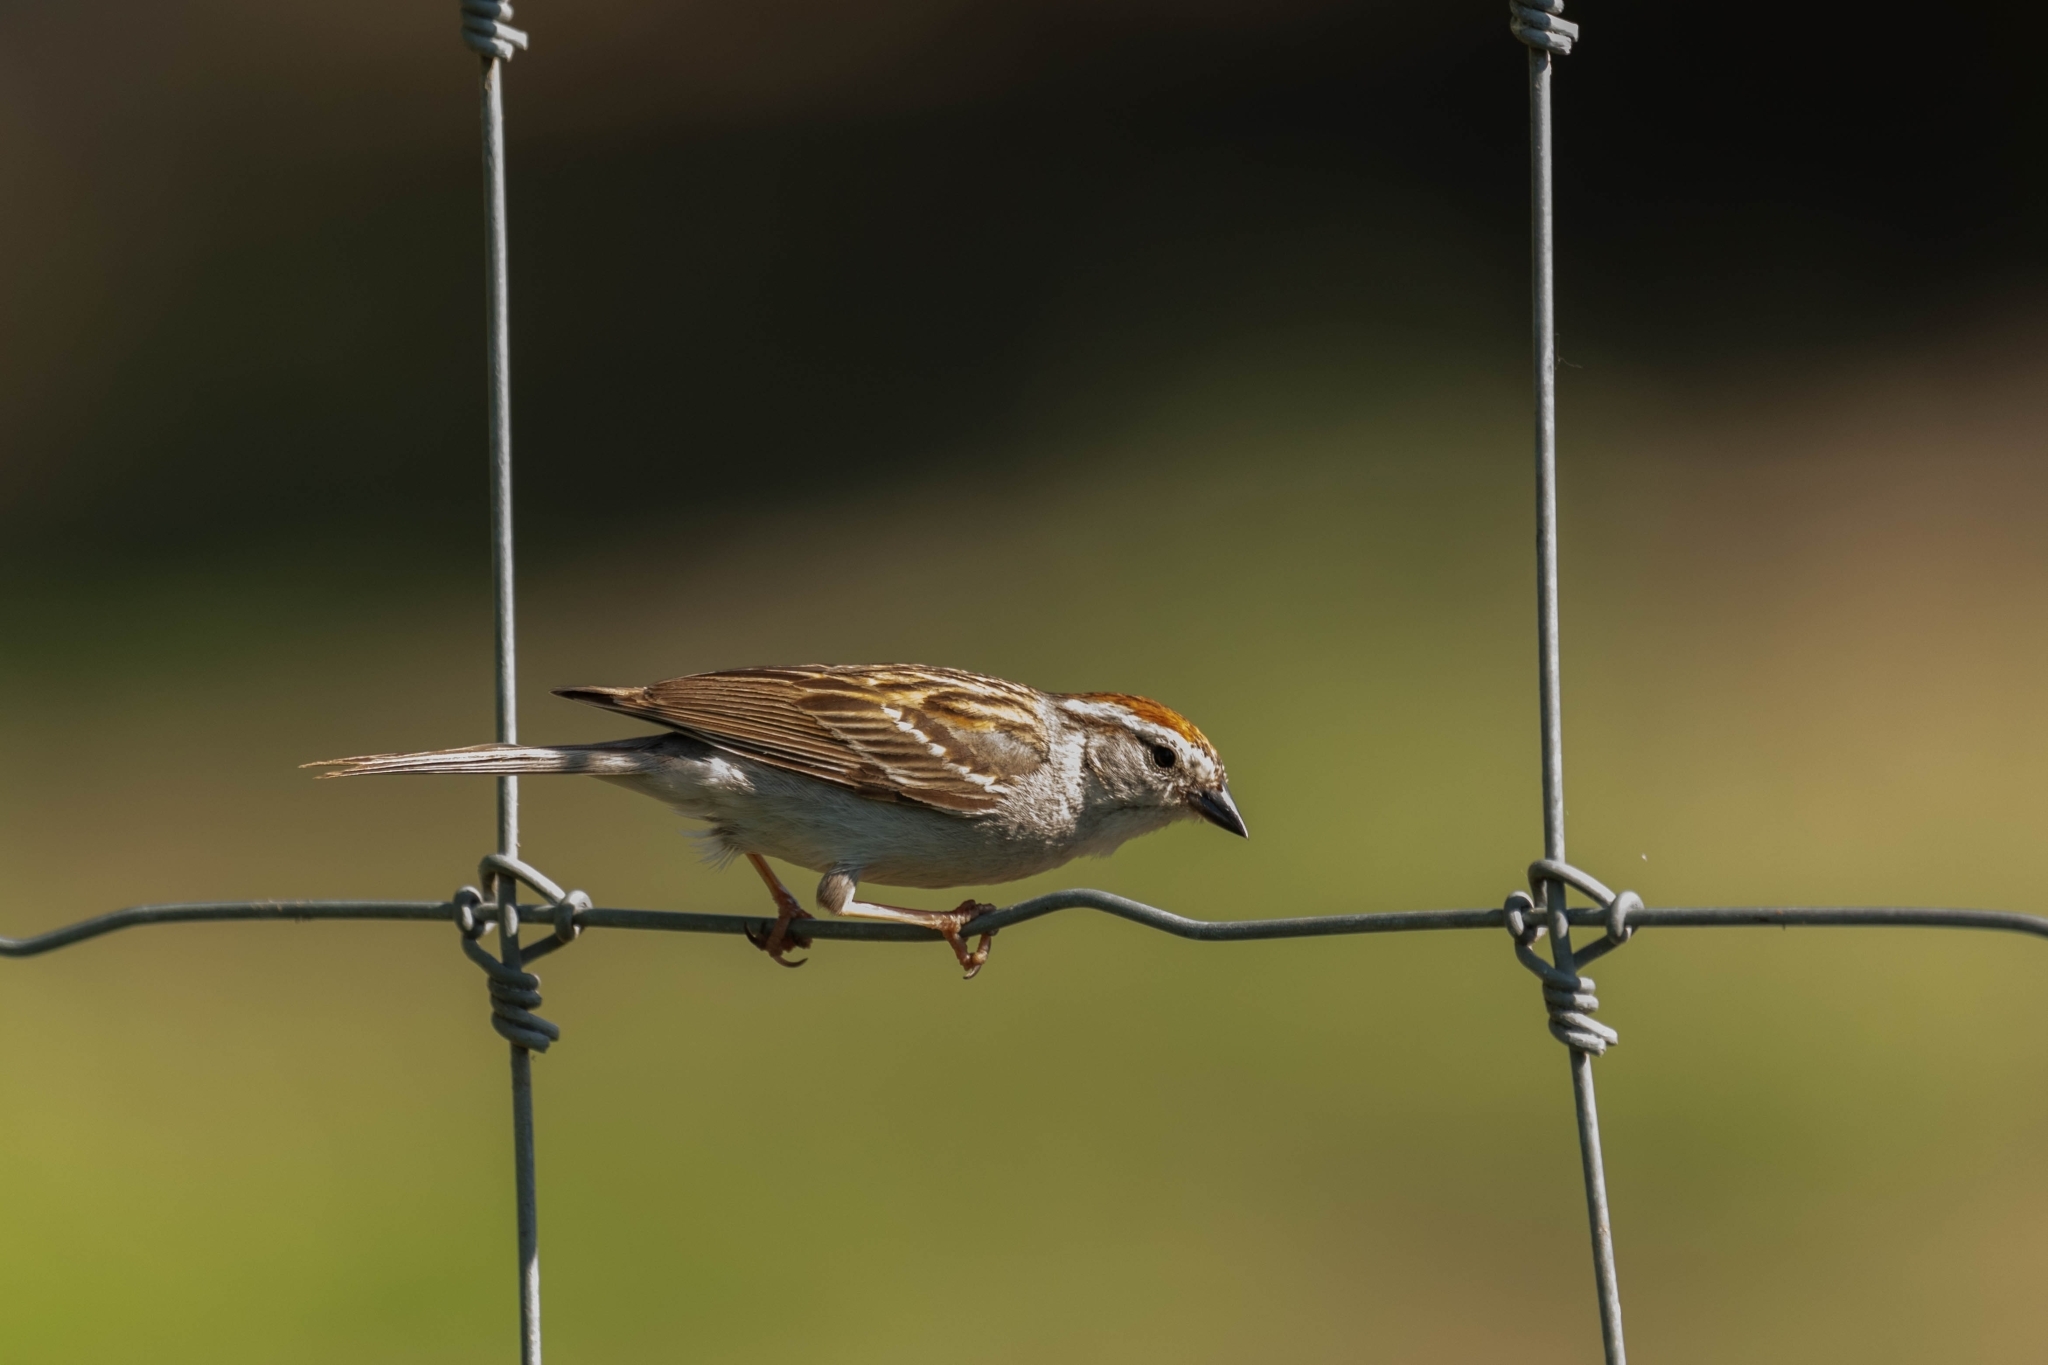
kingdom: Animalia
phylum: Chordata
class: Aves
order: Passeriformes
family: Passerellidae
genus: Spizella
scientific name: Spizella passerina
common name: Chipping sparrow
